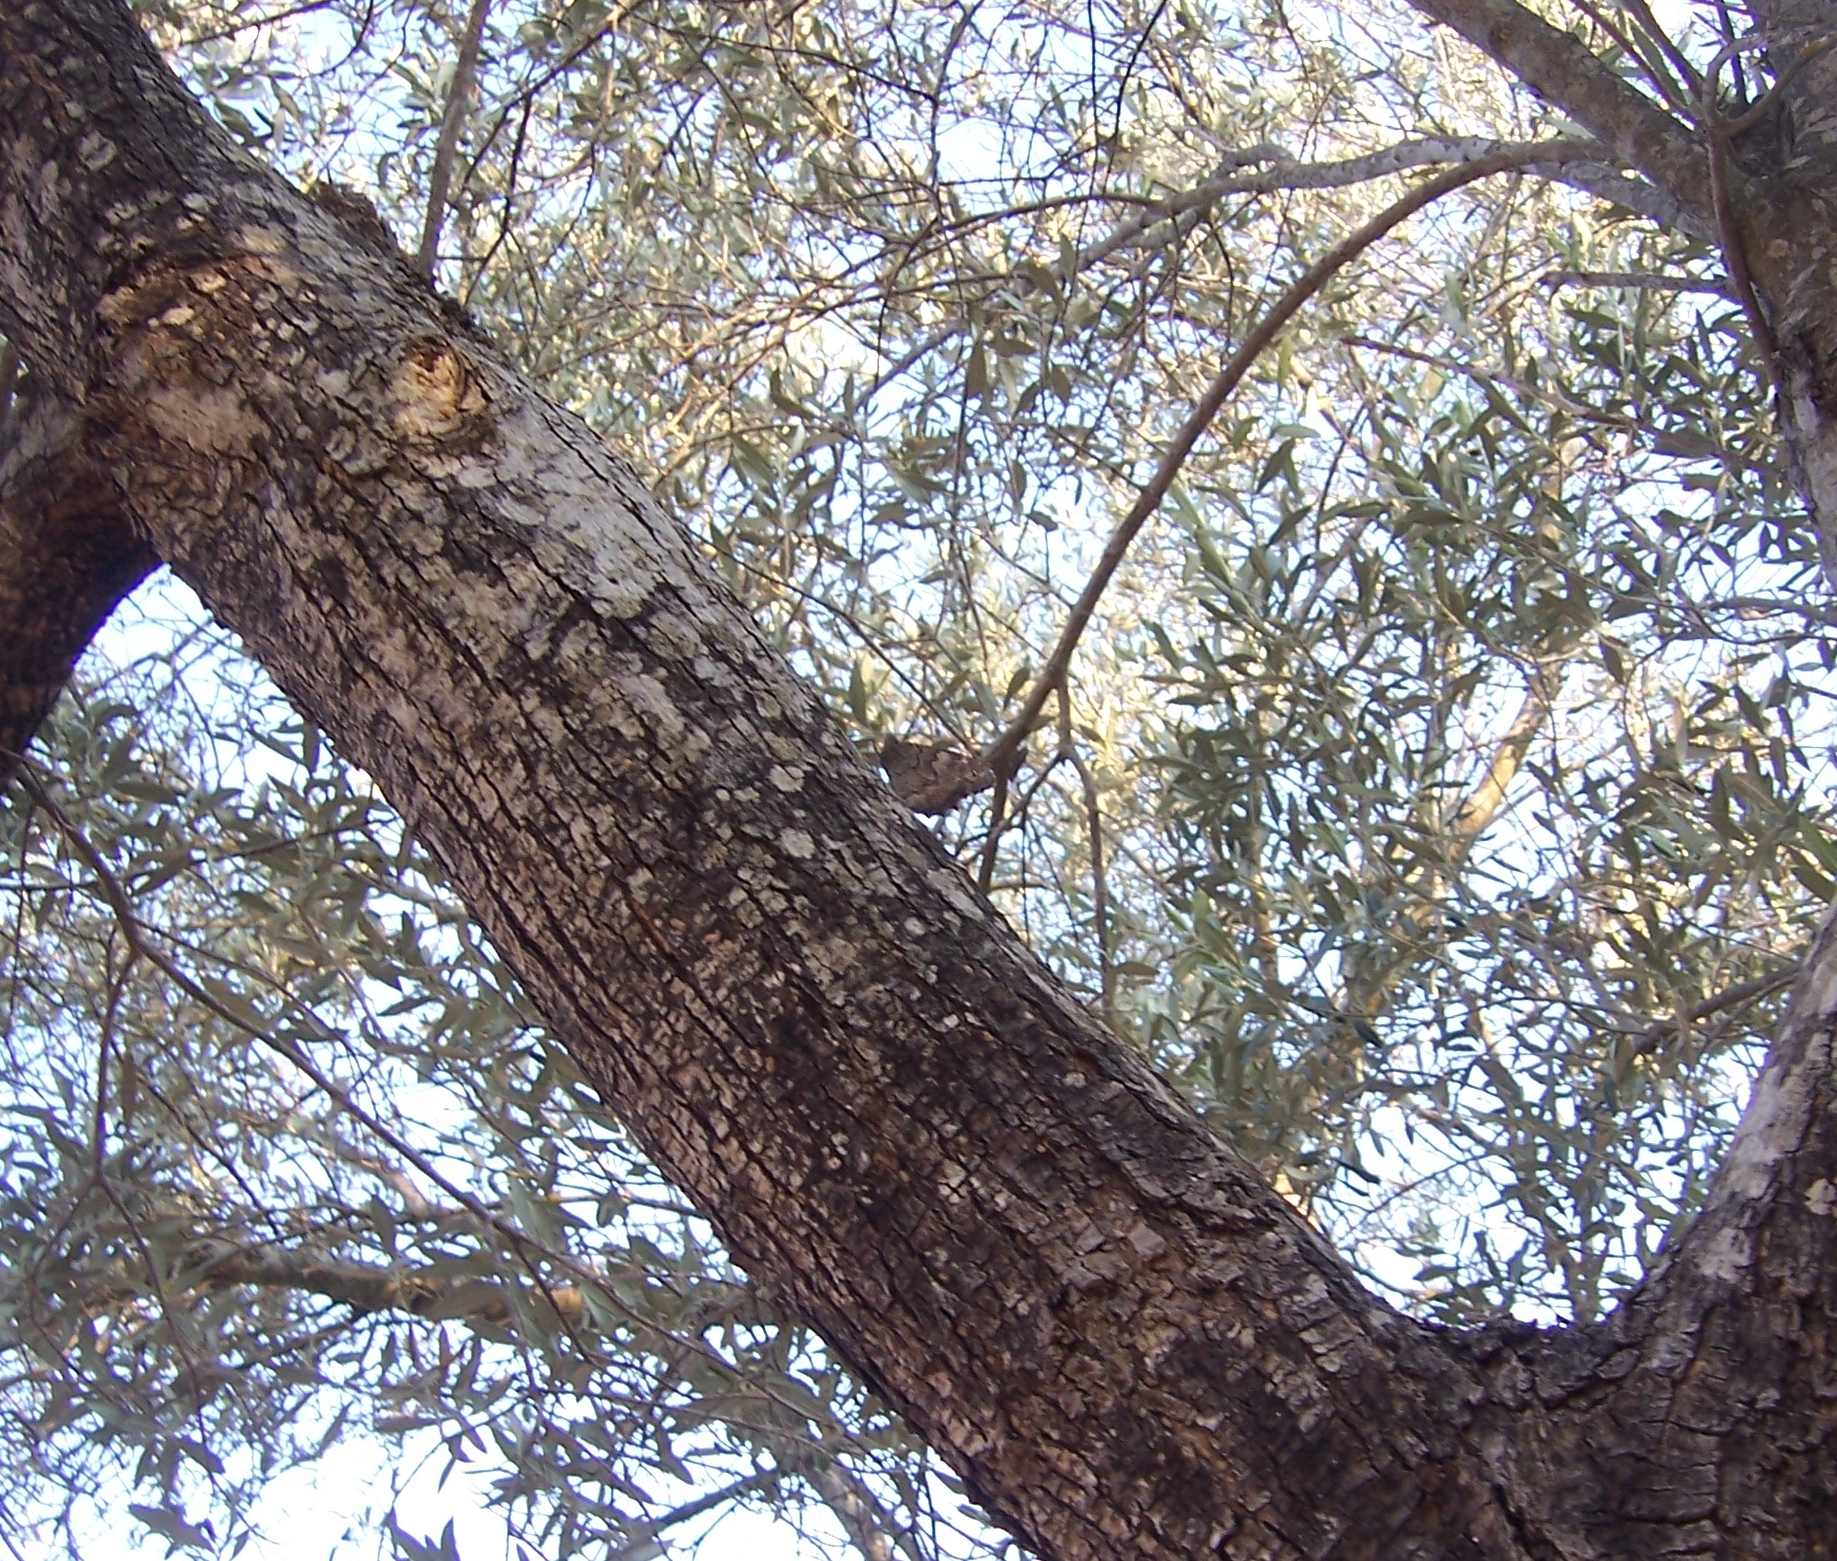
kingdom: Animalia
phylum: Arthropoda
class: Insecta
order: Lepidoptera
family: Nymphalidae
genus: Hipparchia
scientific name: Hipparchia fatua
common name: Freyer's grayling
